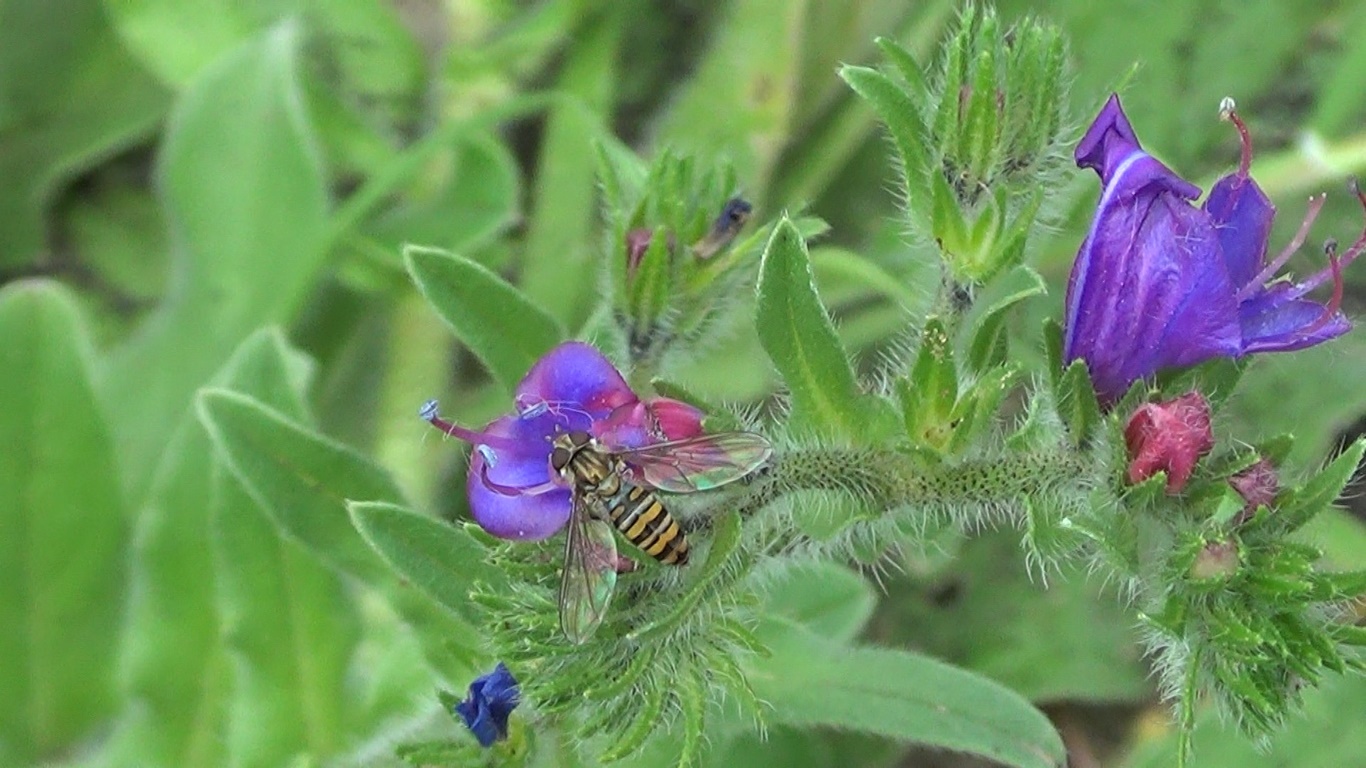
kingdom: Animalia
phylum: Arthropoda
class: Insecta
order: Diptera
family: Syrphidae
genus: Episyrphus
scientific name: Episyrphus balteatus
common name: Marmalade hoverfly
